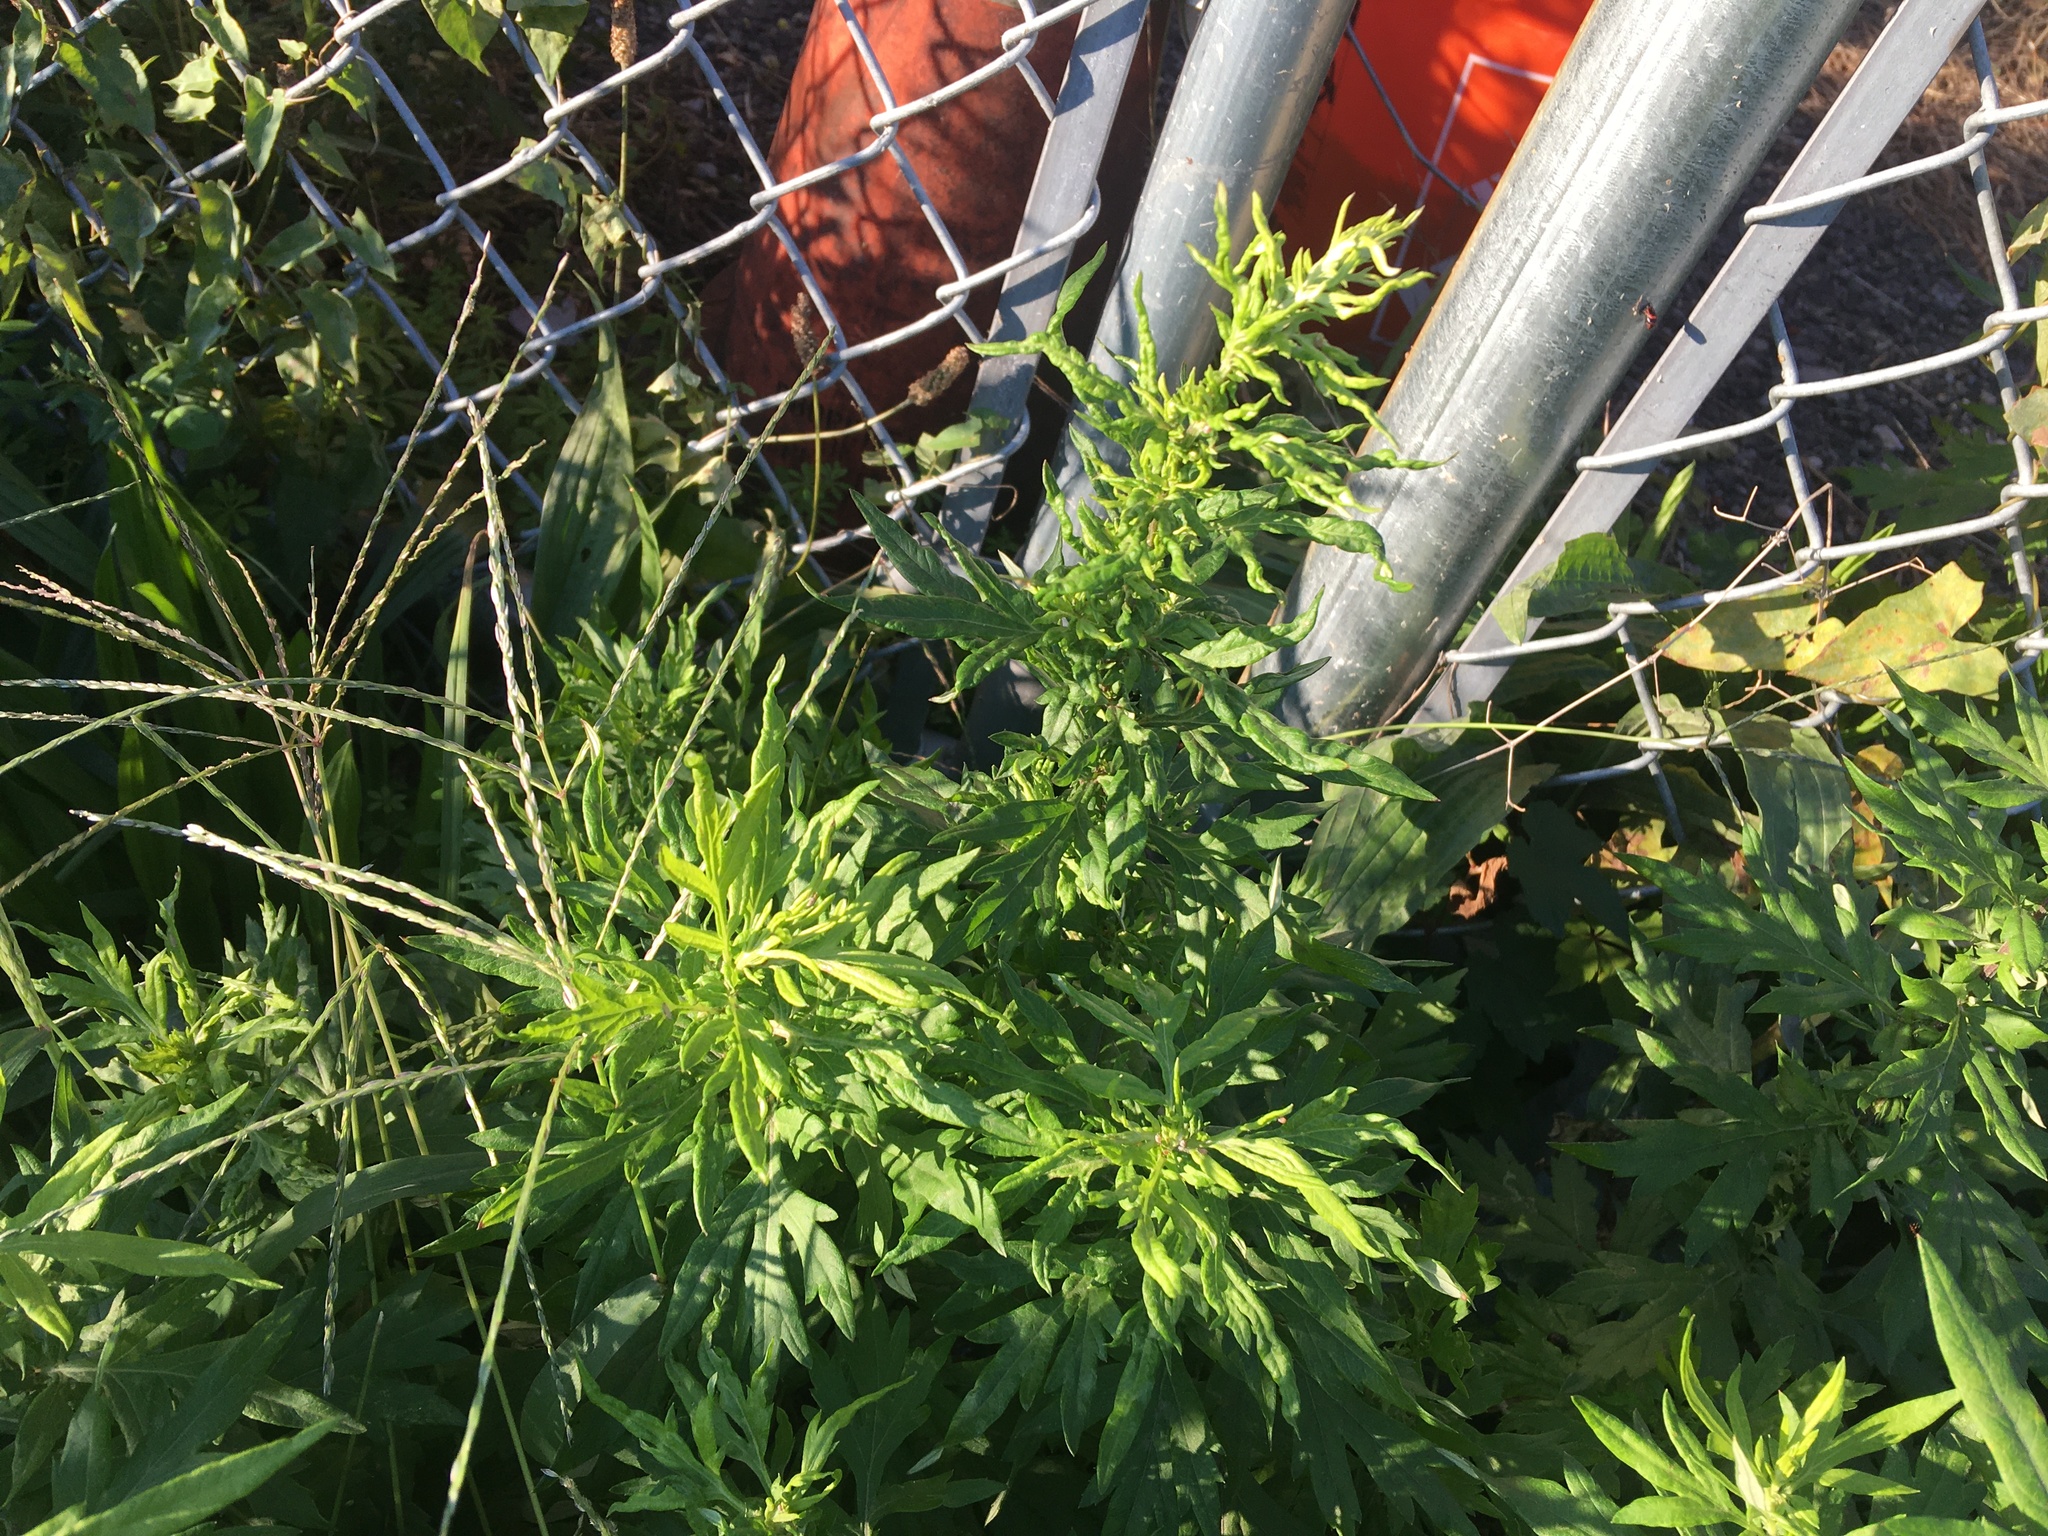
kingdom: Plantae
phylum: Tracheophyta
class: Magnoliopsida
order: Asterales
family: Asteraceae
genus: Artemisia
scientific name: Artemisia vulgaris
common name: Mugwort
